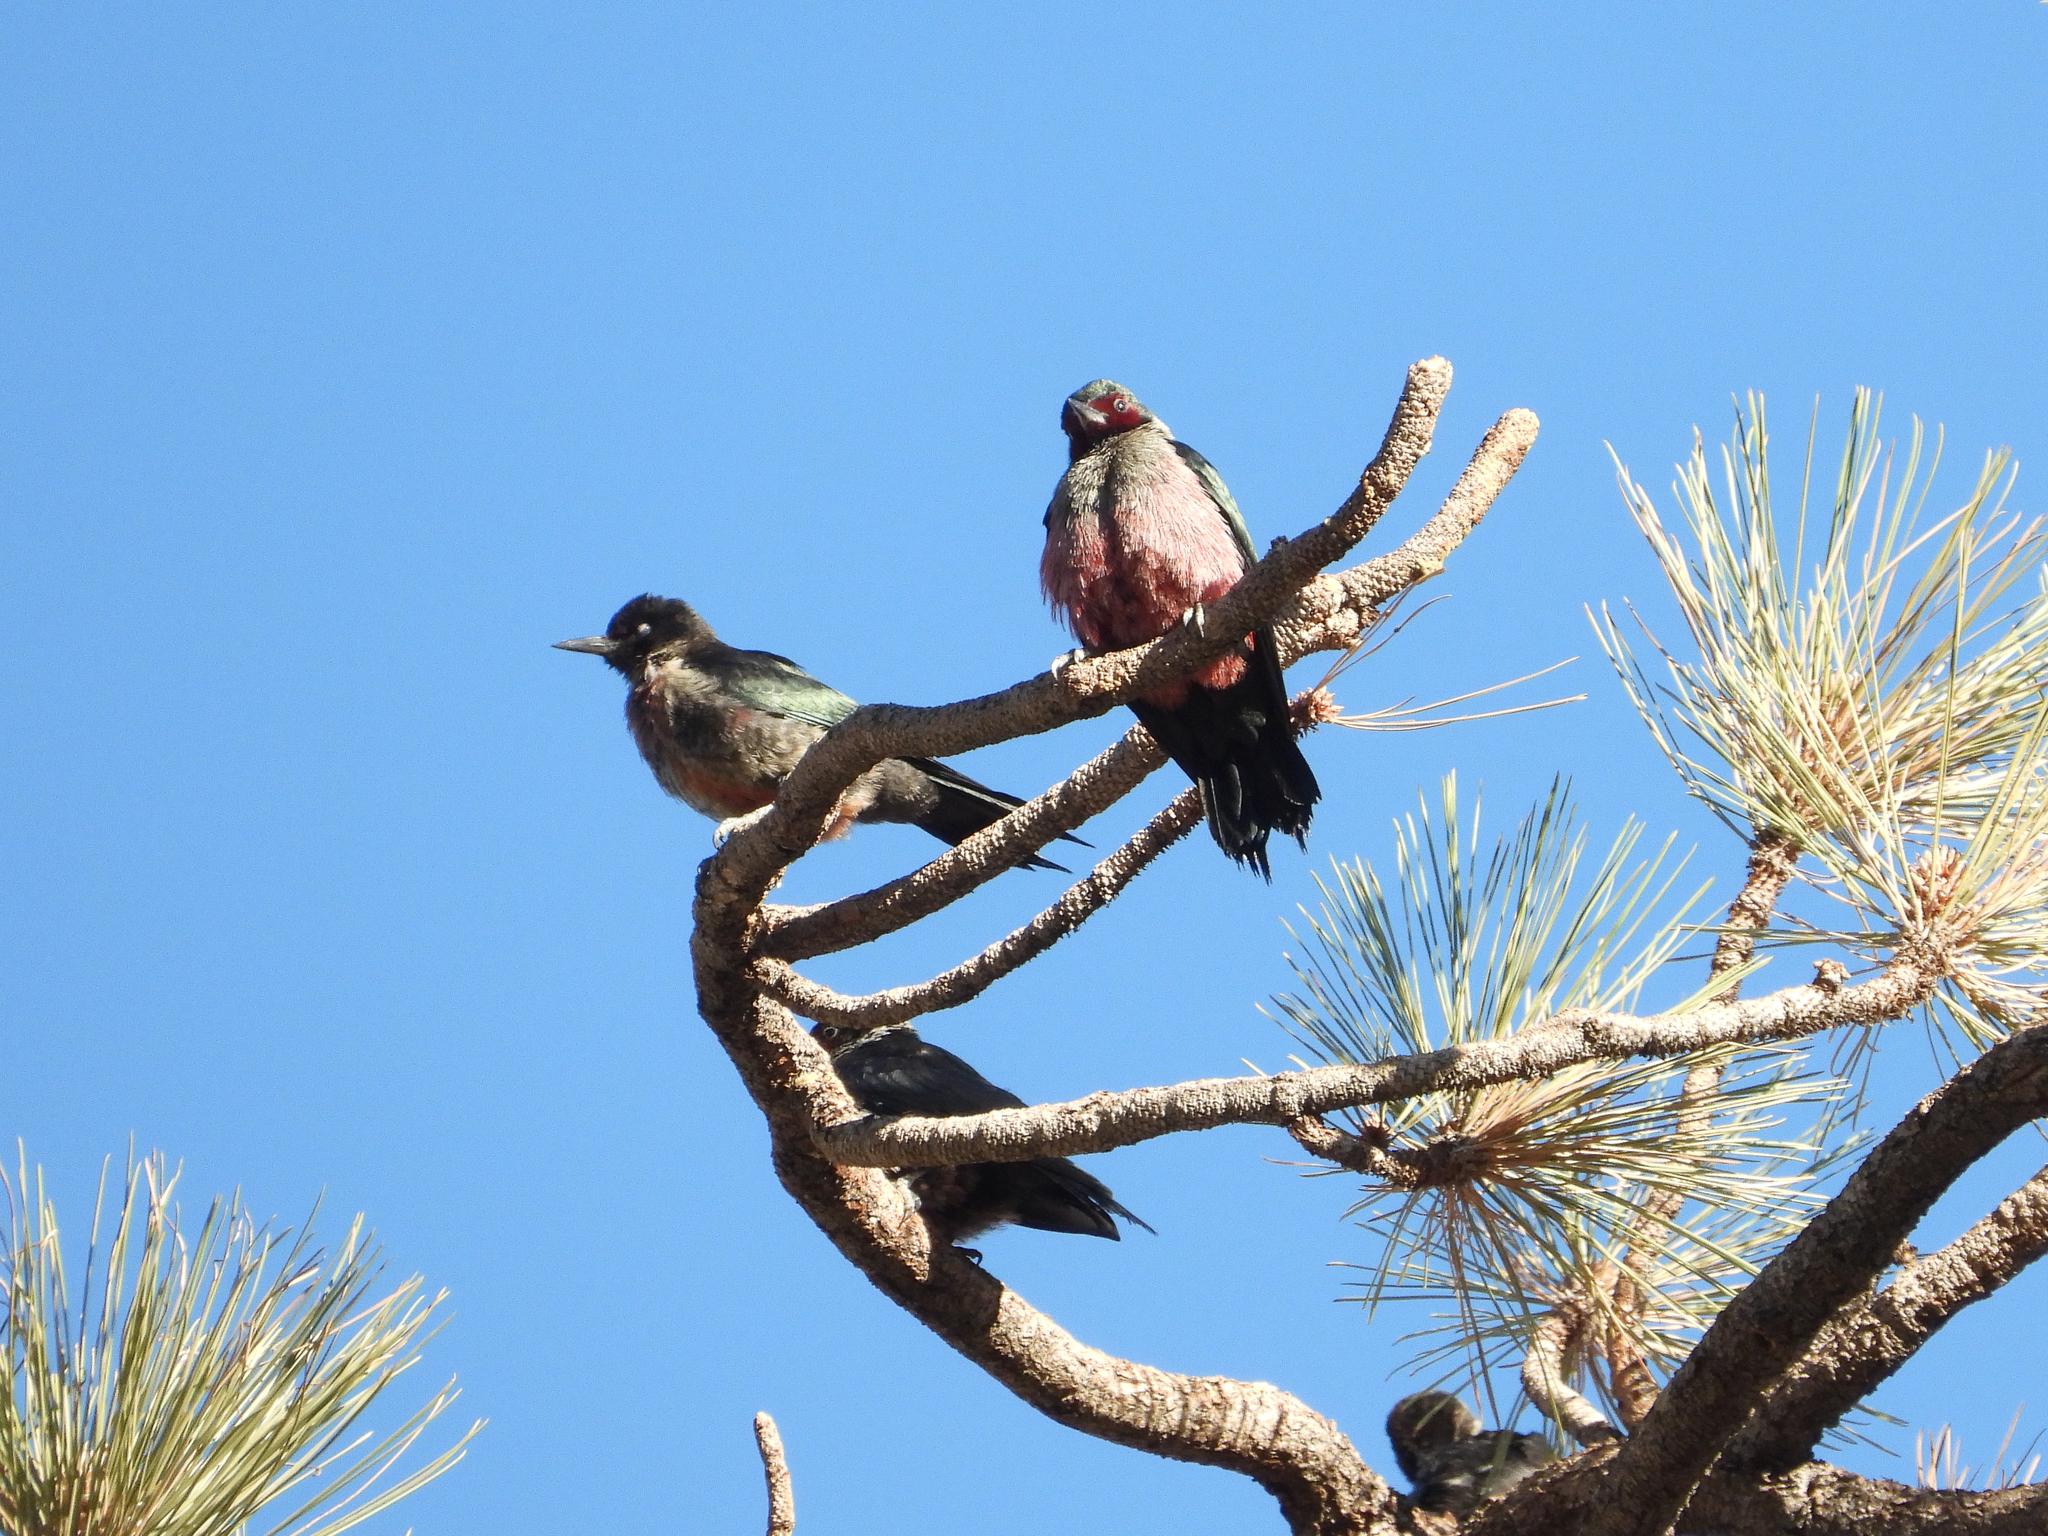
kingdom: Animalia
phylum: Chordata
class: Aves
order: Piciformes
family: Picidae
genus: Melanerpes
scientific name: Melanerpes lewis
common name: Lewis's woodpecker
